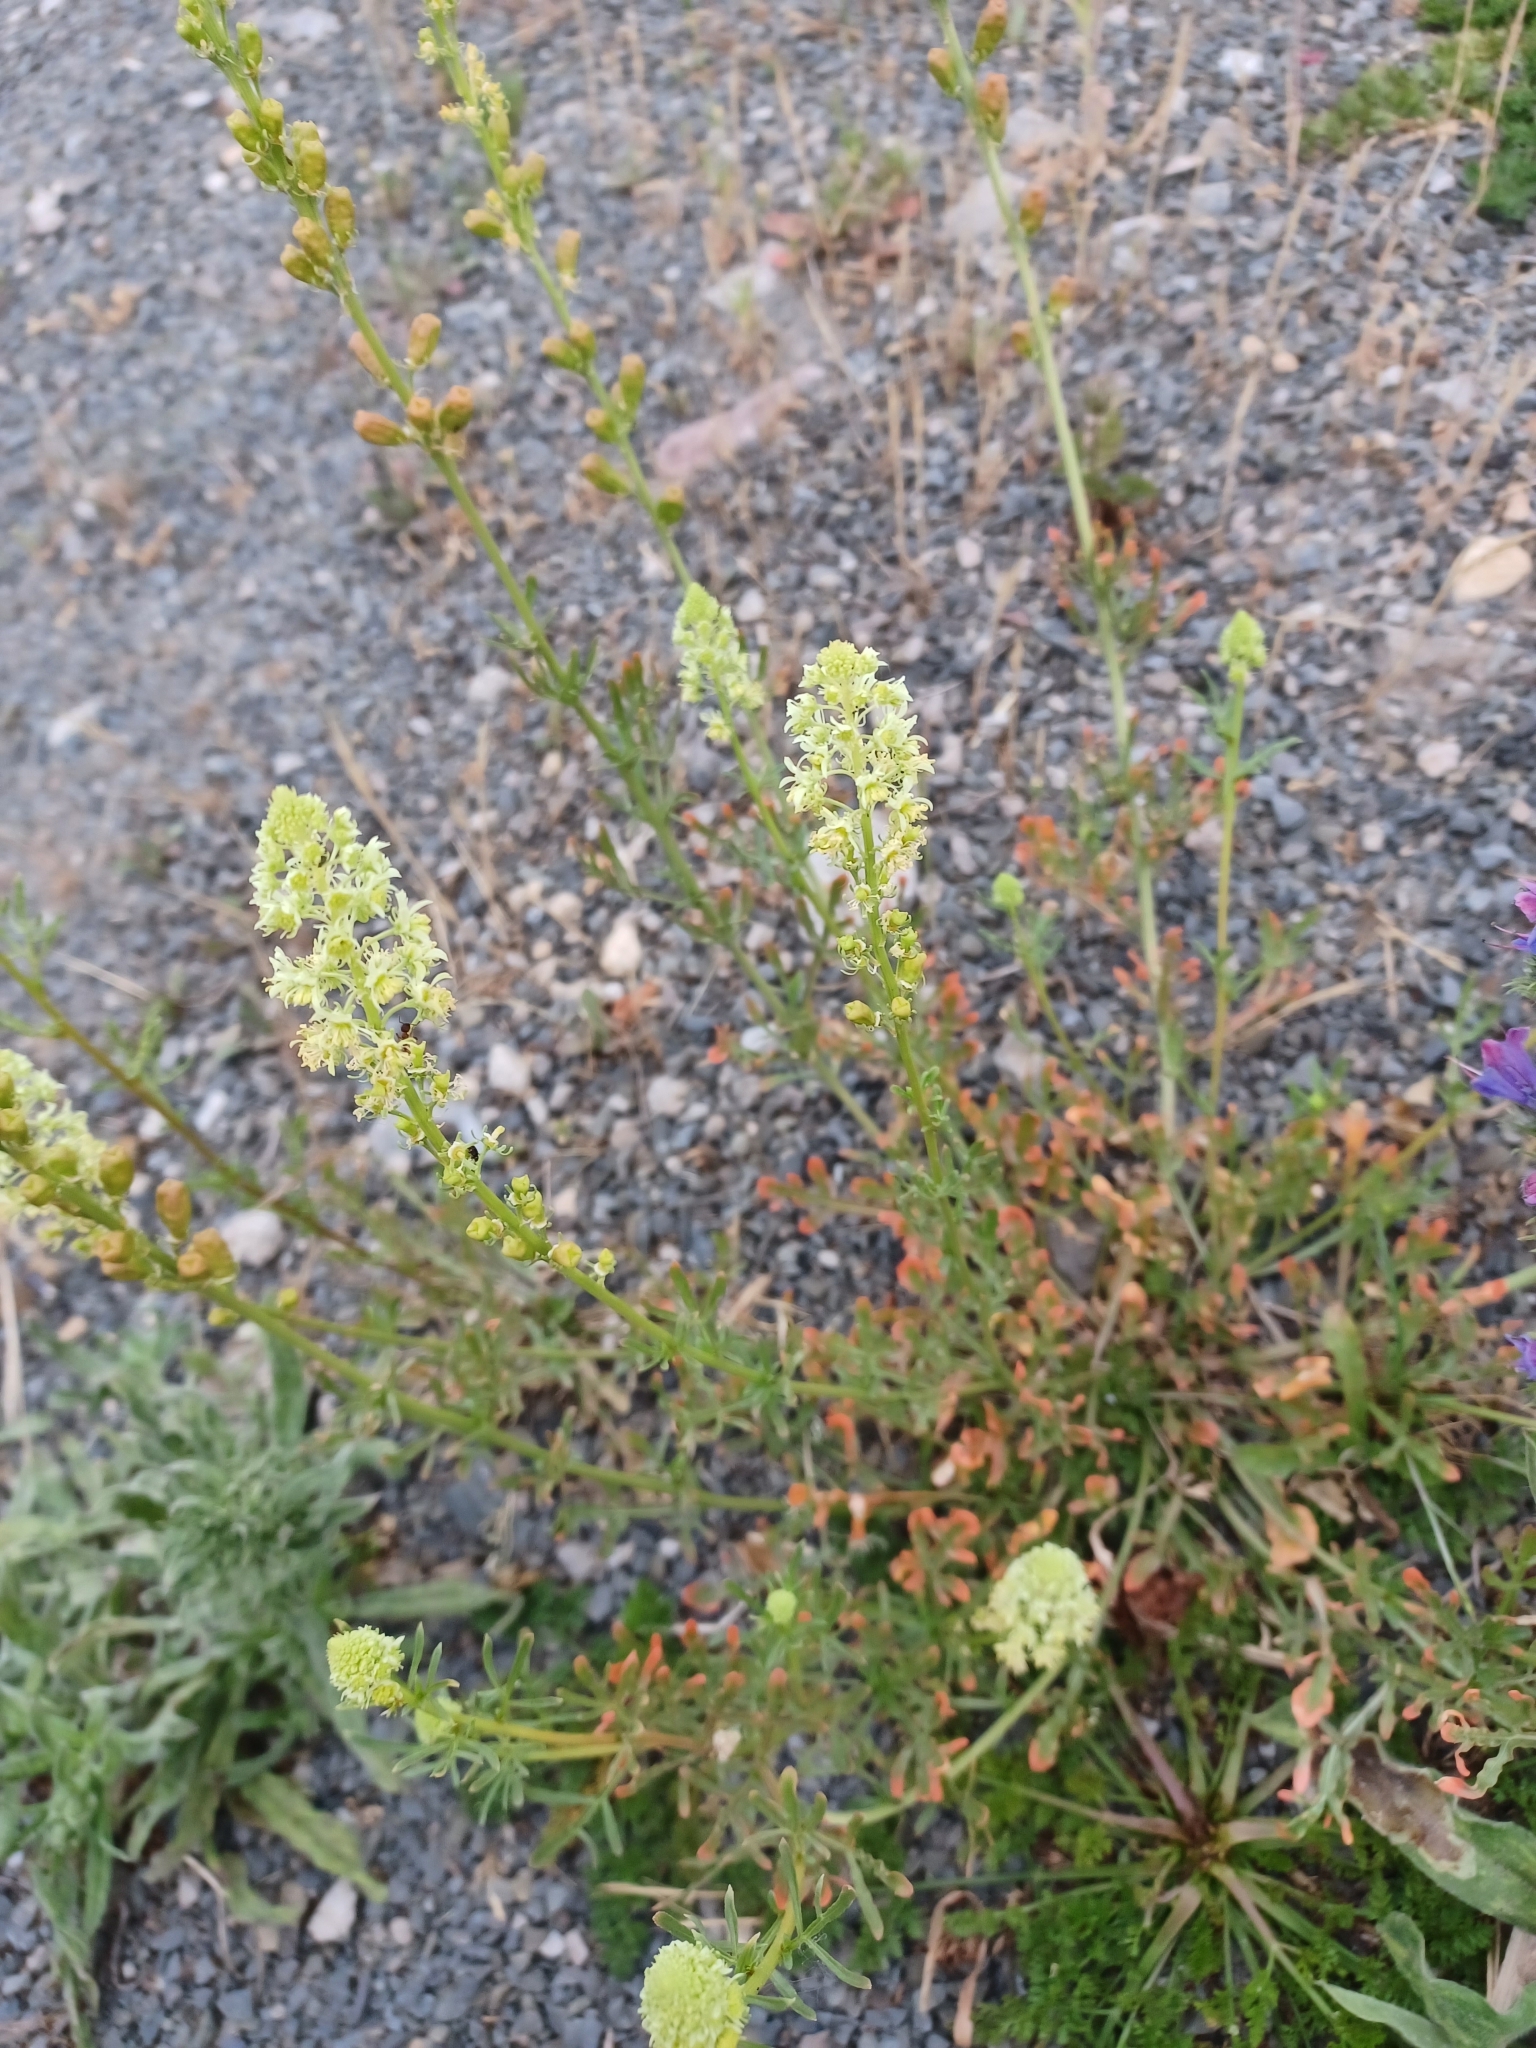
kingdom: Plantae
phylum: Tracheophyta
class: Magnoliopsida
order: Brassicales
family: Resedaceae
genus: Reseda
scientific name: Reseda lutea
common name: Wild mignonette
